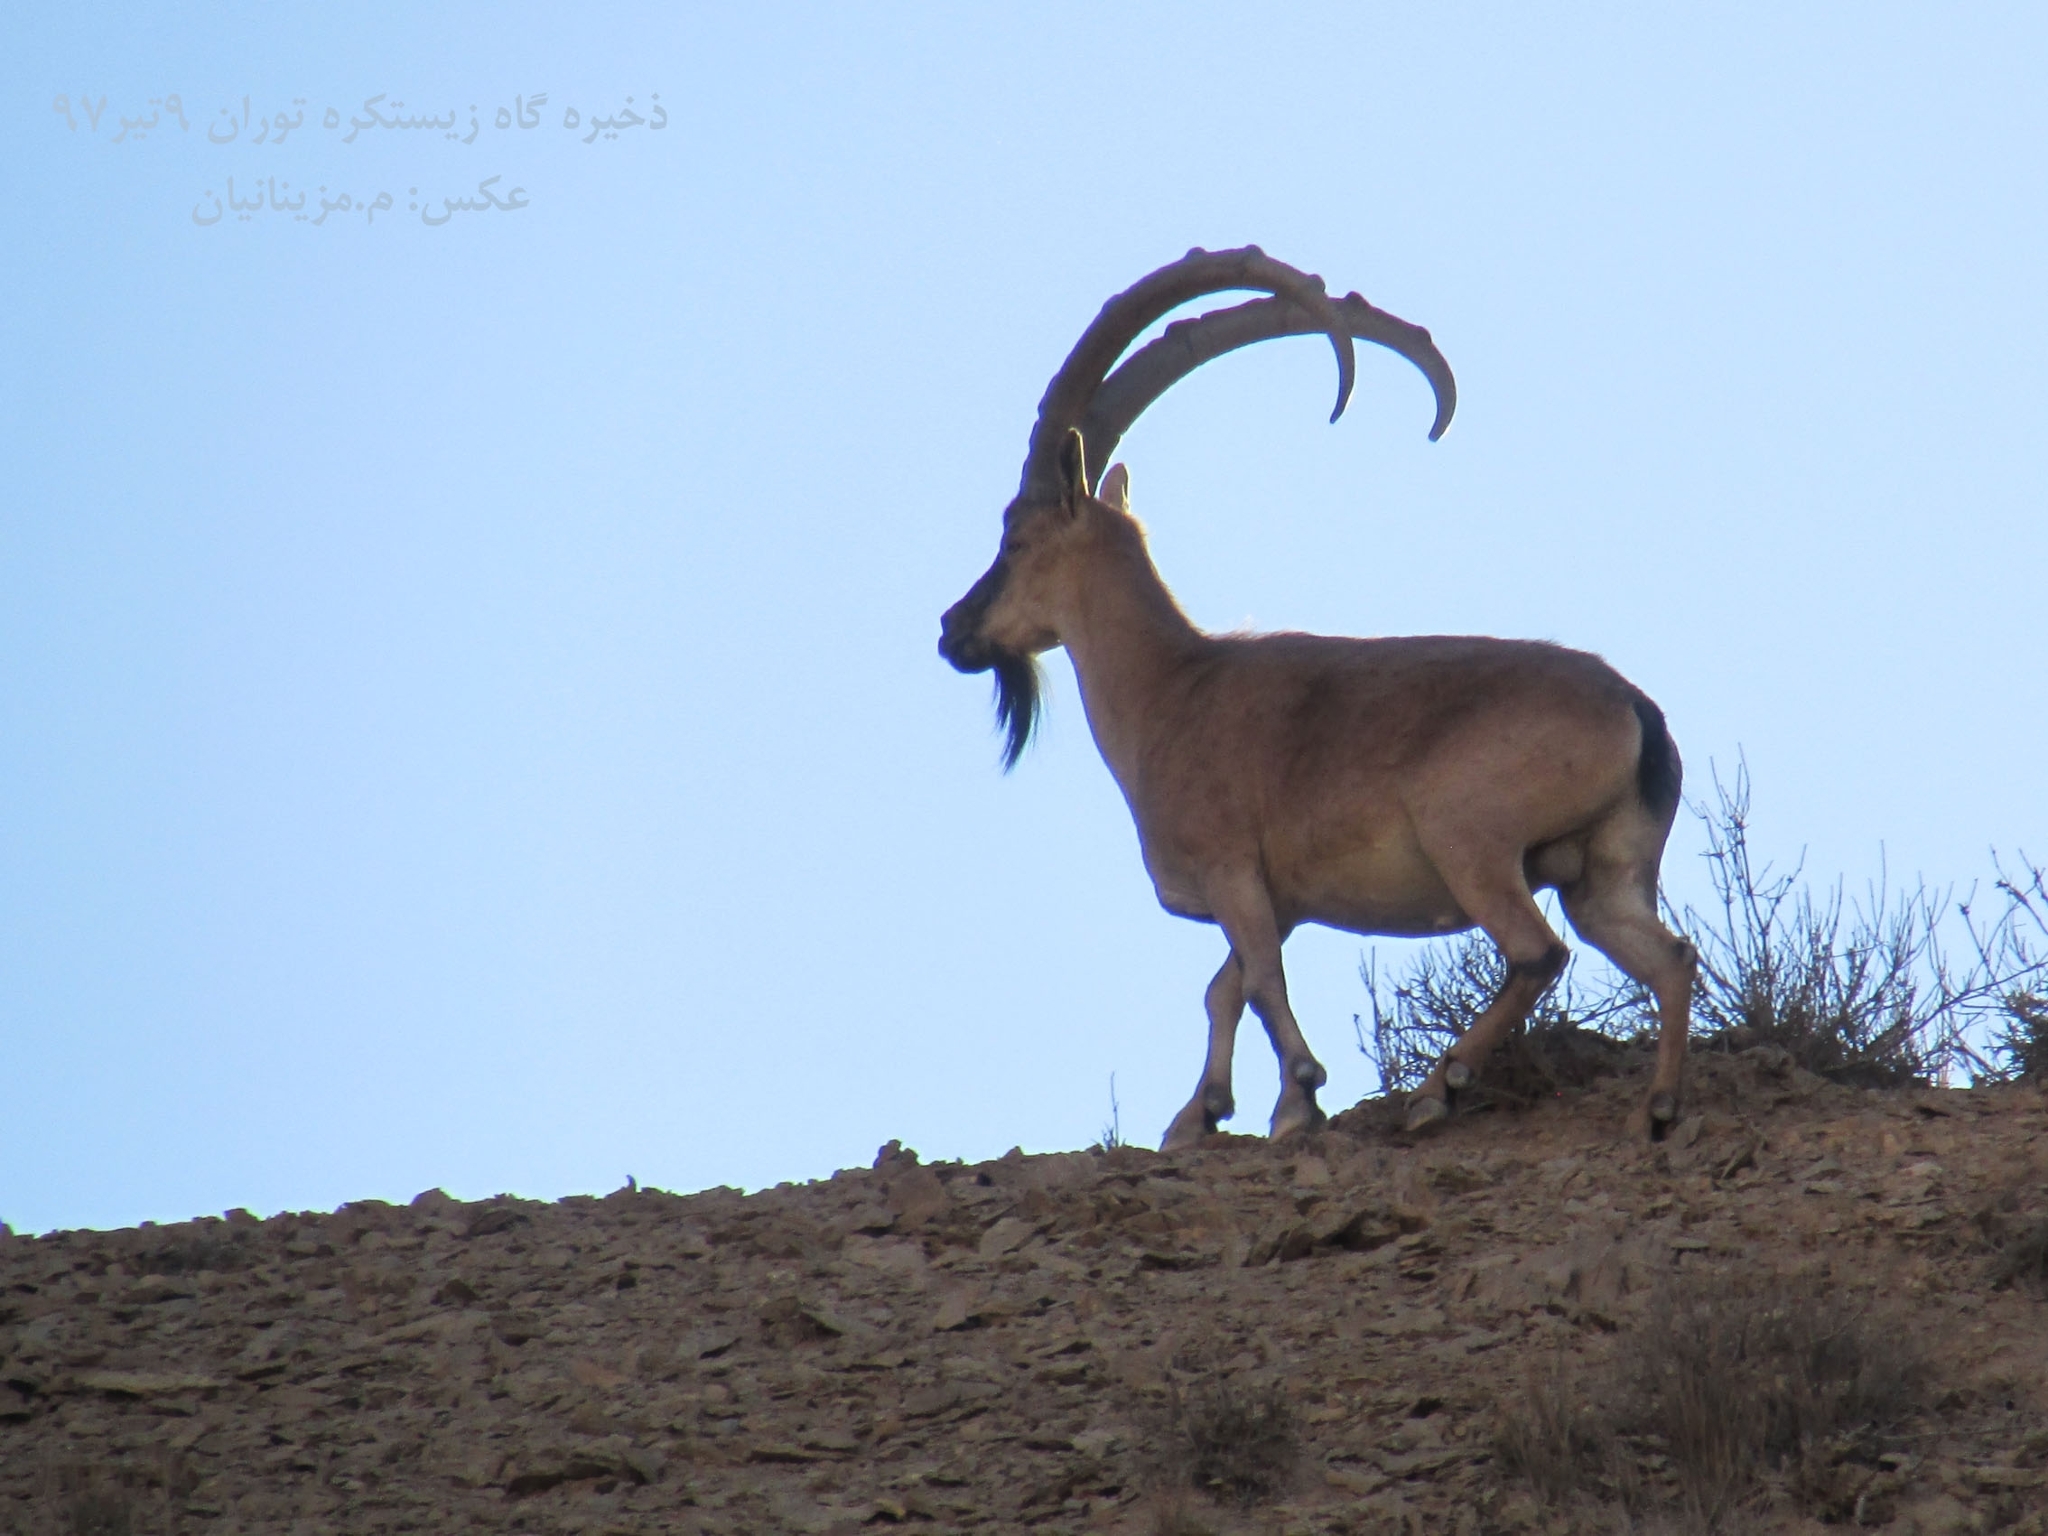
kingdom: Animalia
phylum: Chordata
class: Mammalia
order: Artiodactyla
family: Bovidae
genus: Capra
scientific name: Capra hircus
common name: Domestic goat
